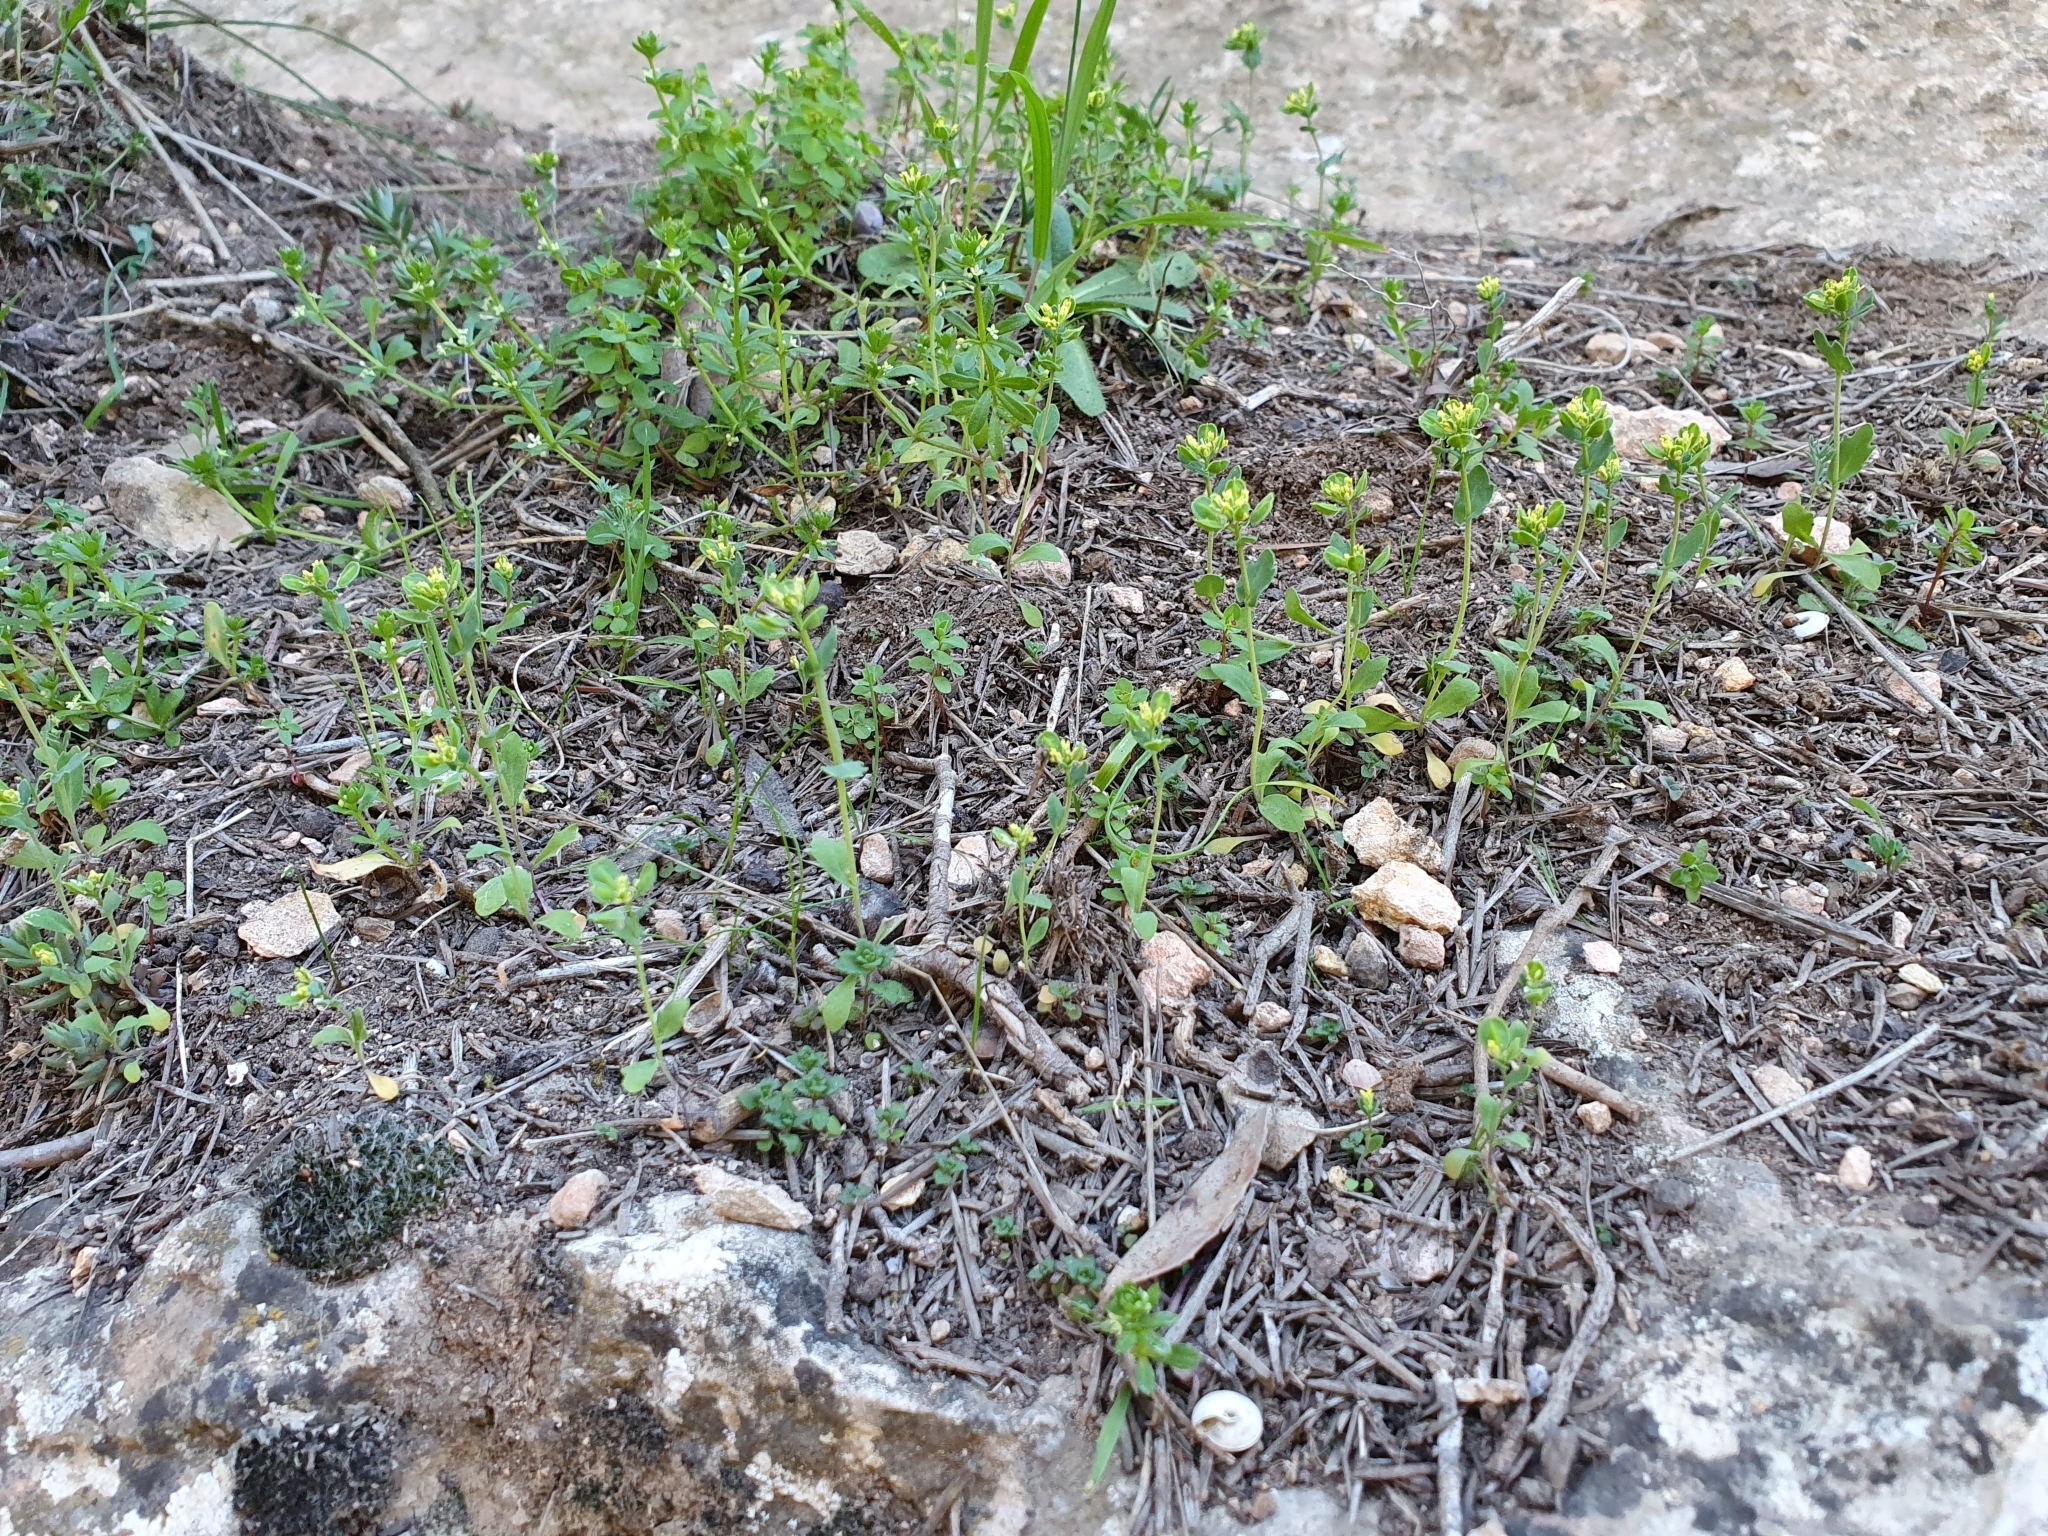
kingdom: Plantae
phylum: Tracheophyta
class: Magnoliopsida
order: Brassicales
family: Brassicaceae
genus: Bivonaea
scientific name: Bivonaea lutea
